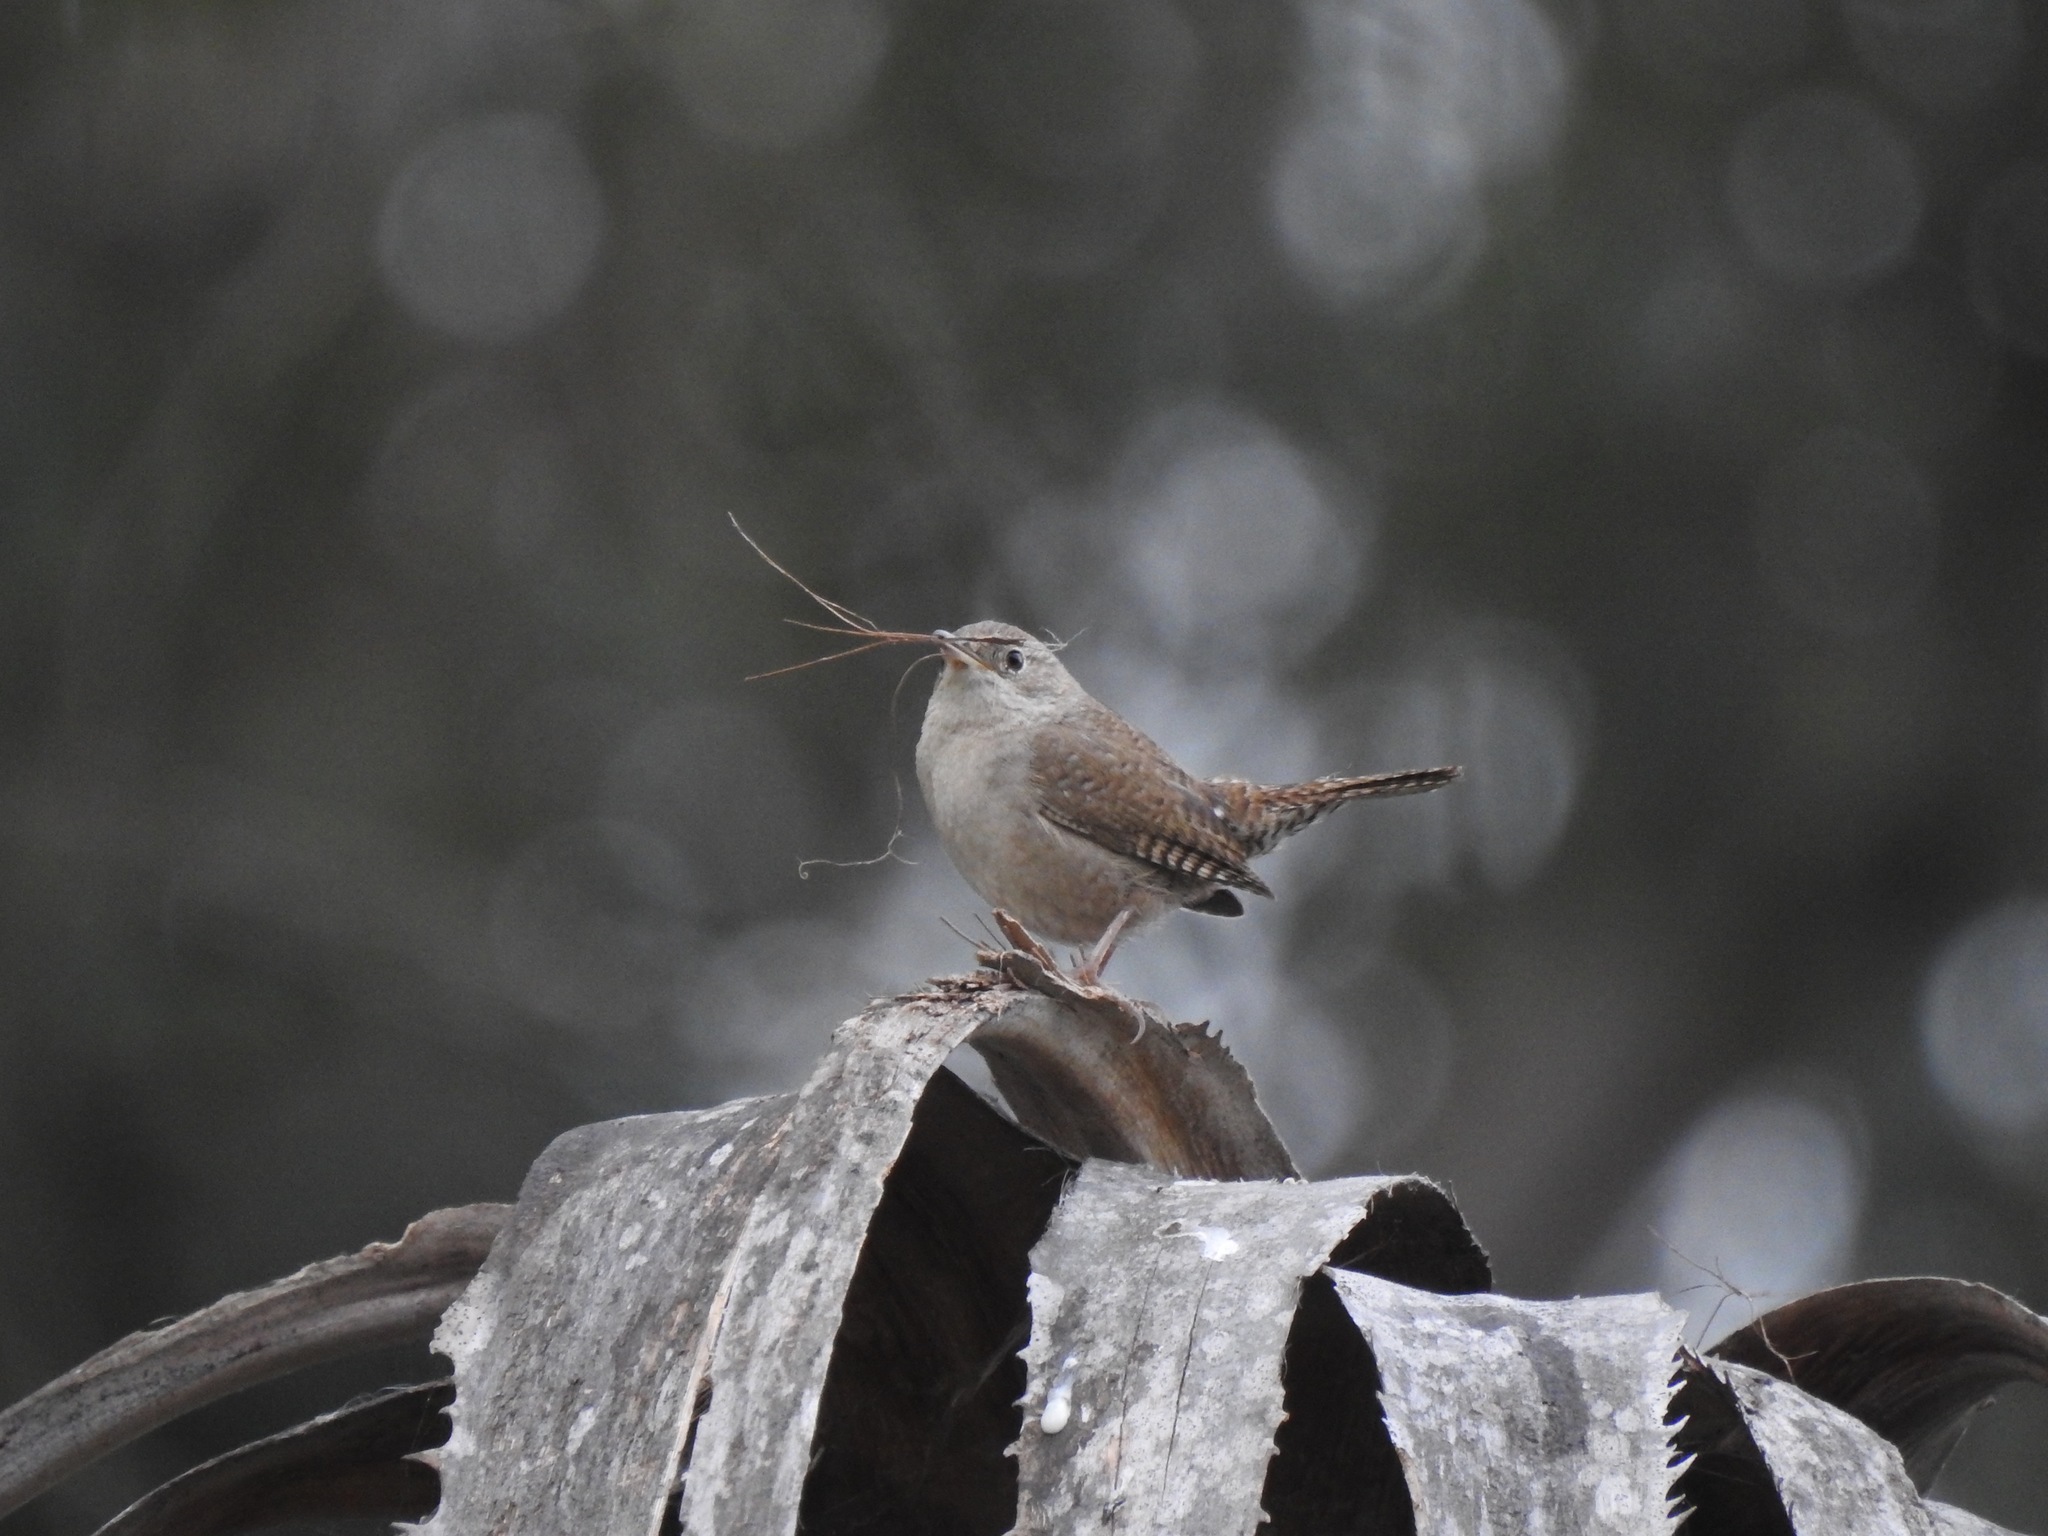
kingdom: Animalia
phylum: Chordata
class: Aves
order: Passeriformes
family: Troglodytidae
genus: Troglodytes
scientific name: Troglodytes aedon
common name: House wren
